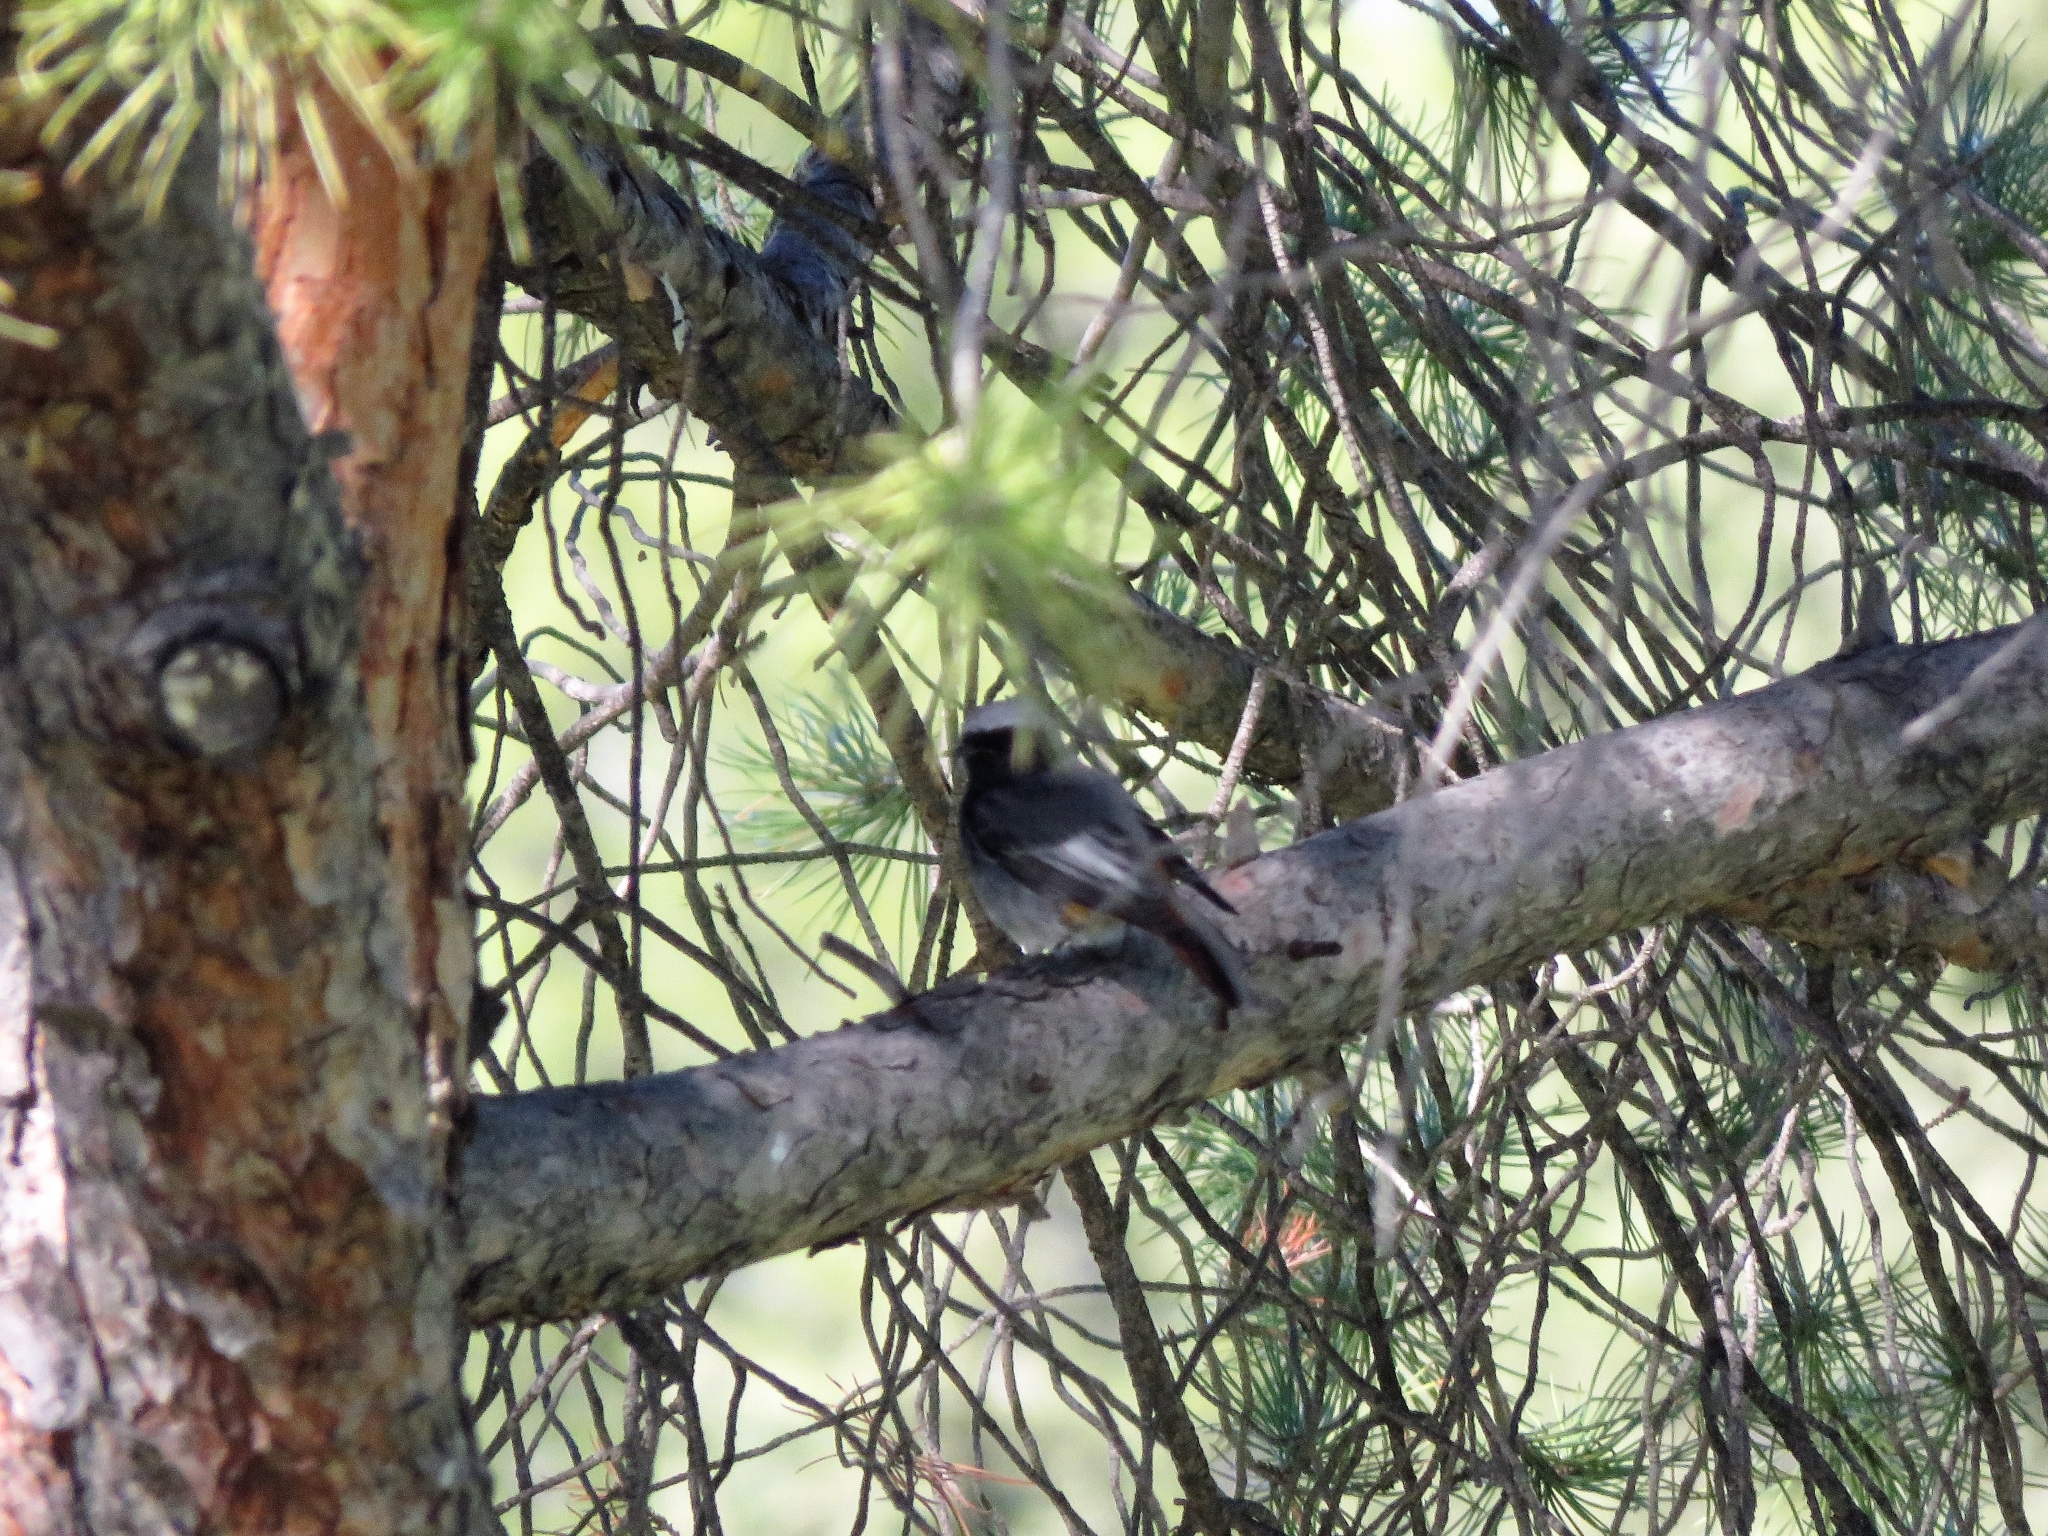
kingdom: Animalia
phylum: Chordata
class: Aves
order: Passeriformes
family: Muscicapidae
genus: Phoenicurus
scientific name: Phoenicurus ochruros
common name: Black redstart
